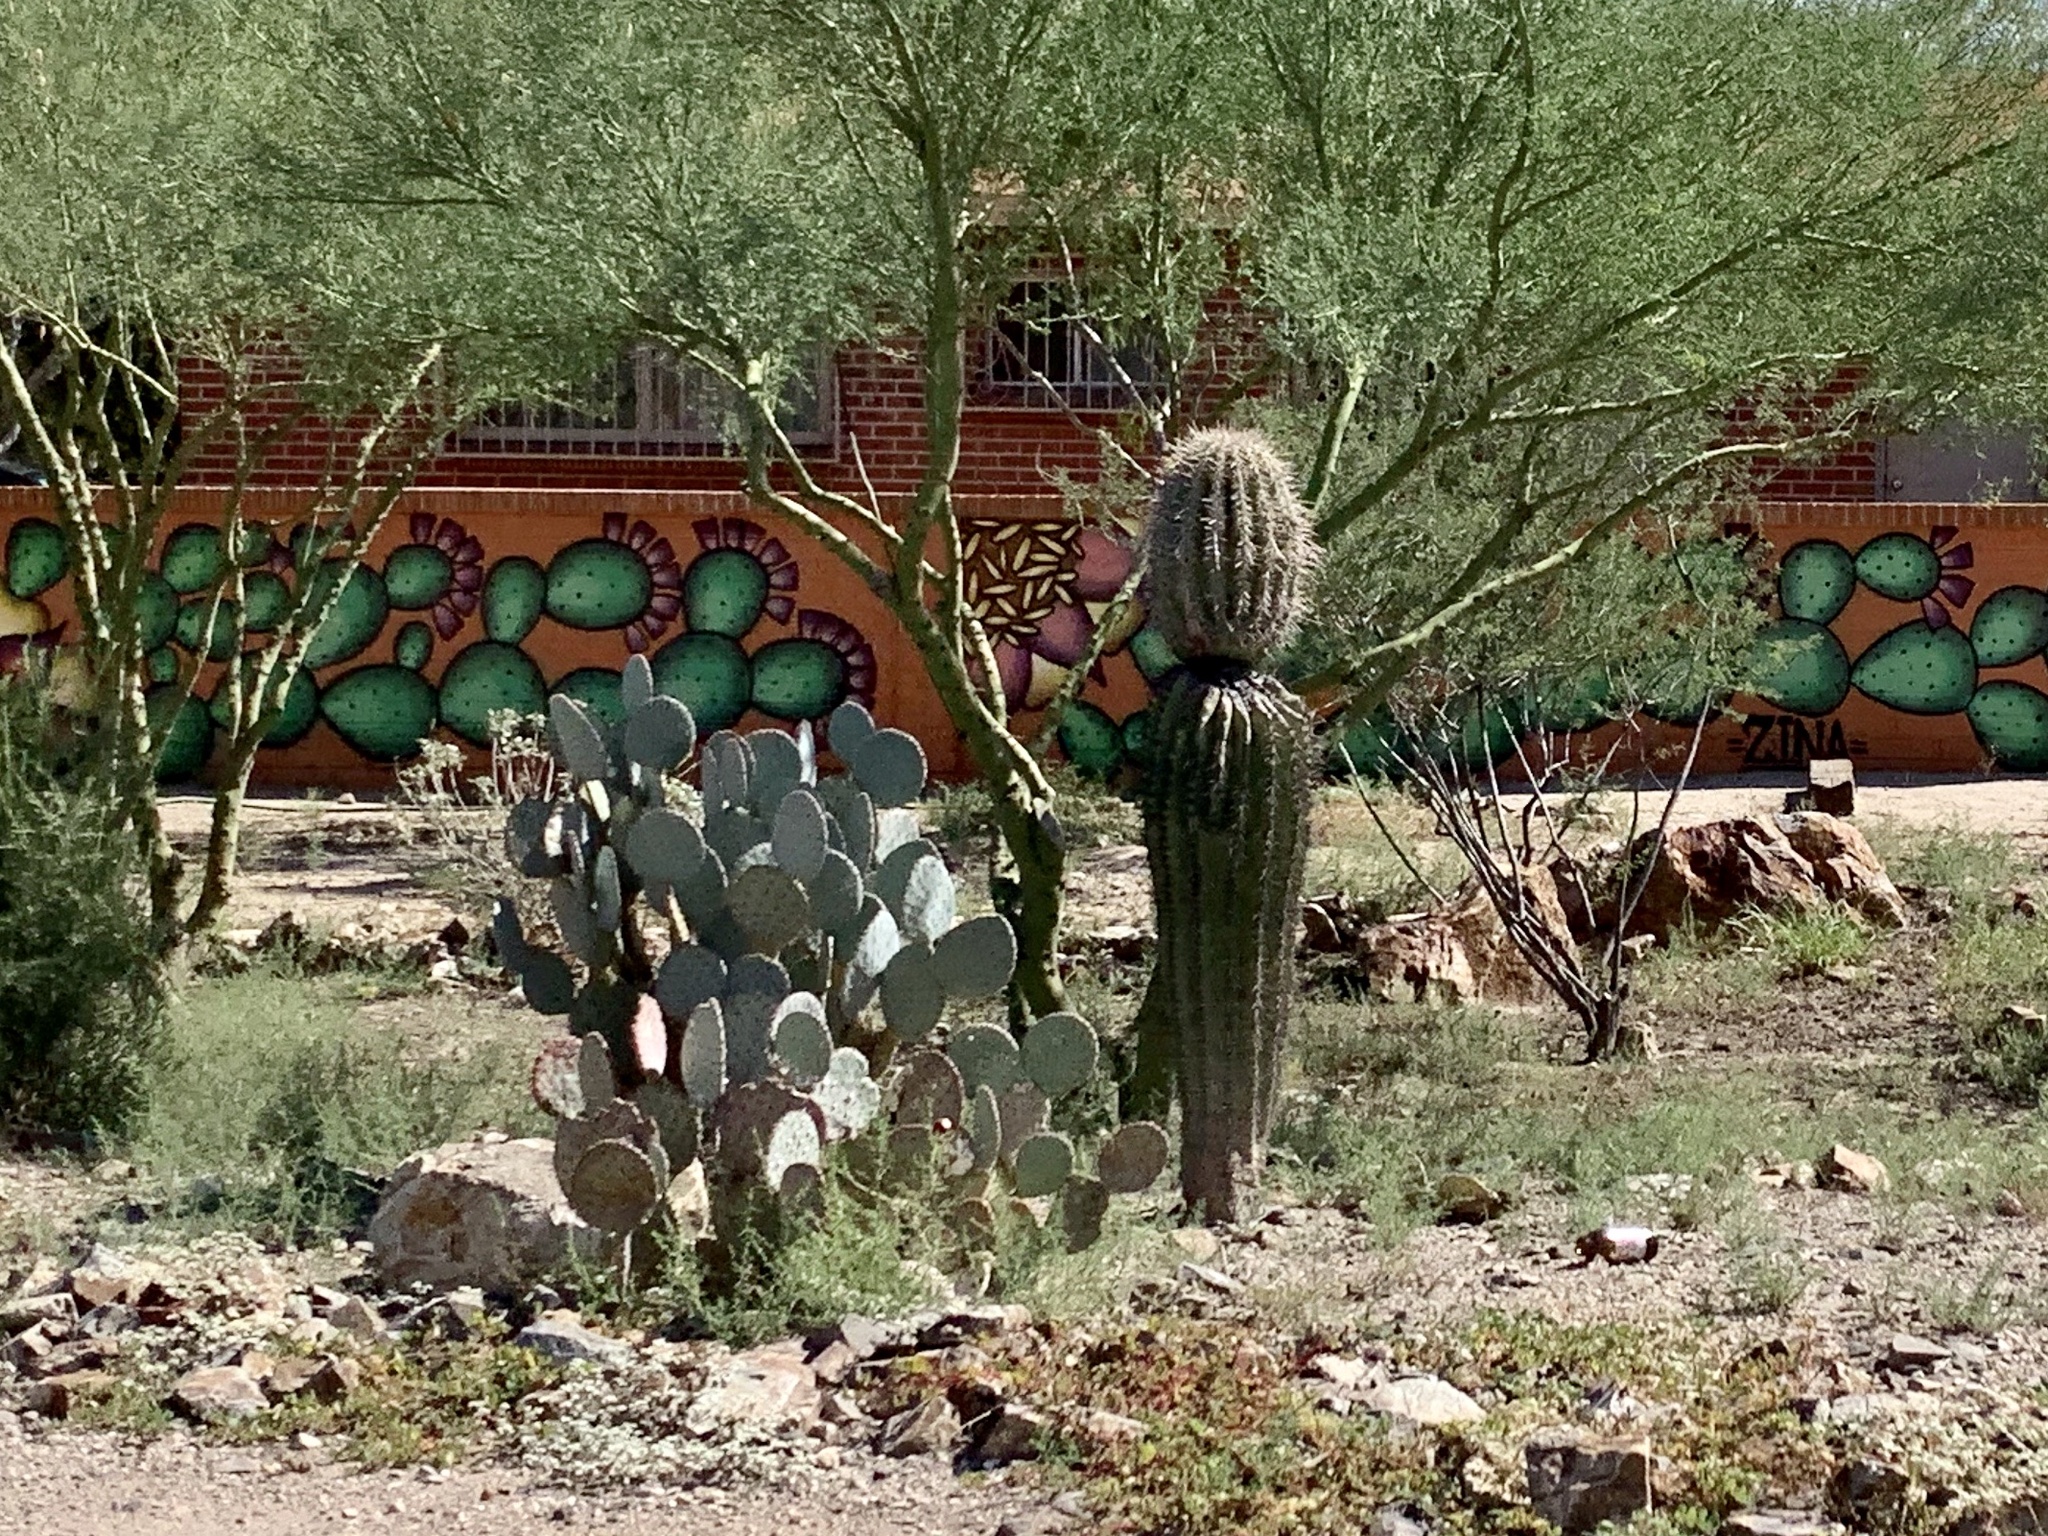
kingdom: Plantae
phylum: Tracheophyta
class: Magnoliopsida
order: Caryophyllales
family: Cactaceae
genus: Carnegiea
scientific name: Carnegiea gigantea
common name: Saguaro
